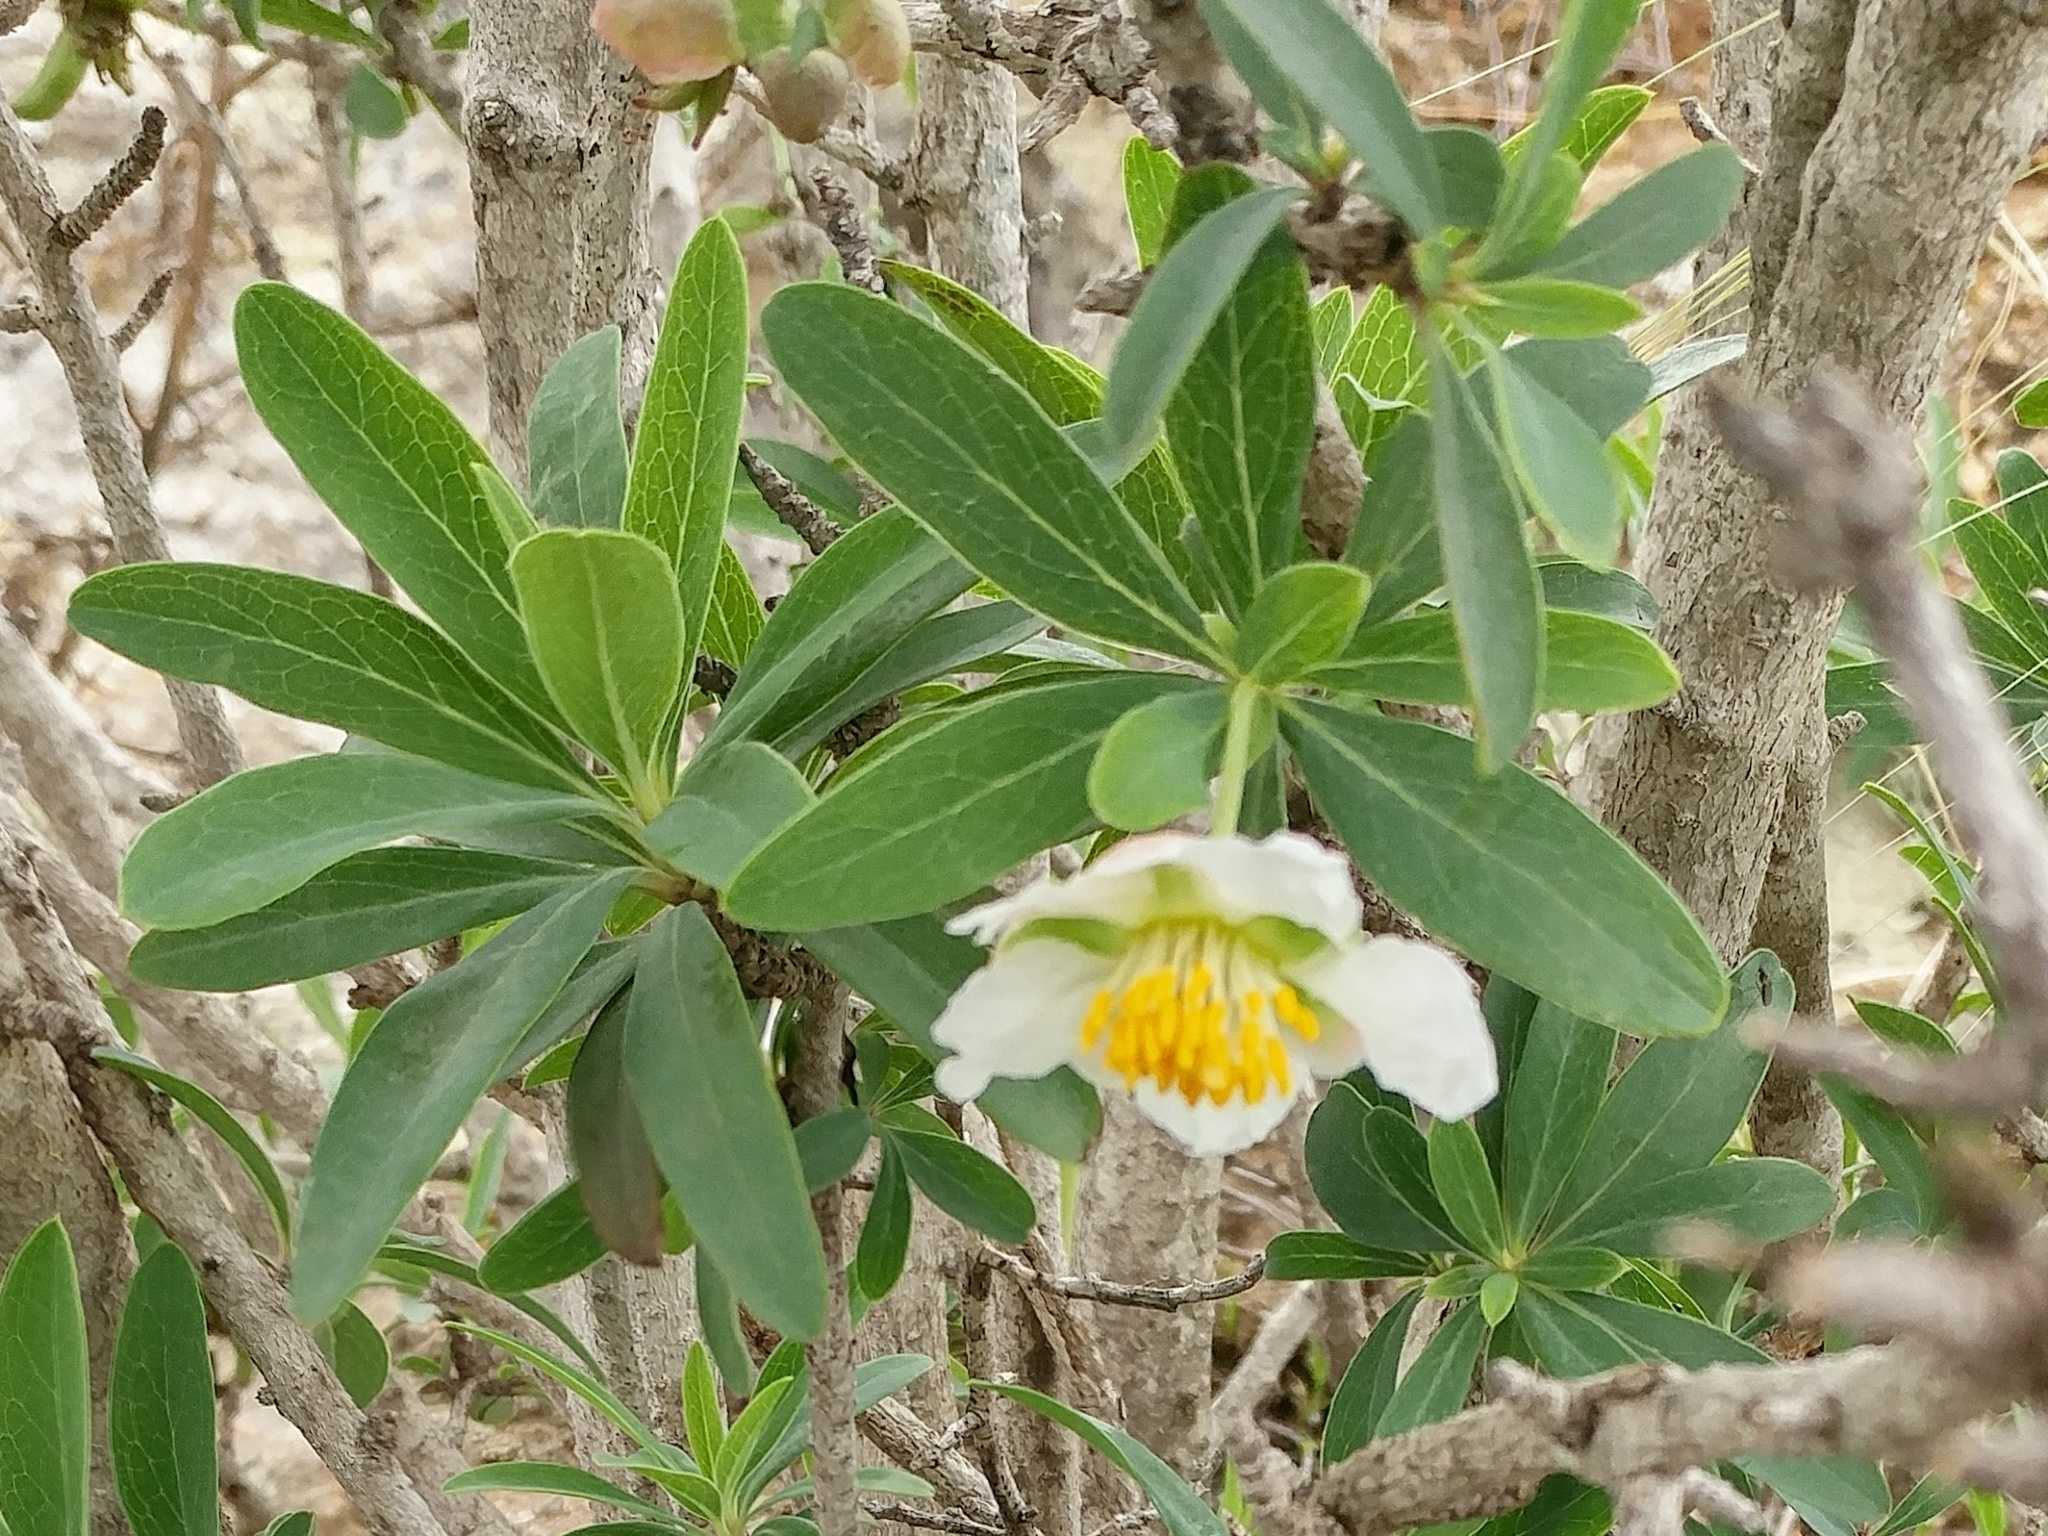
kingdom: Plantae
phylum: Tracheophyta
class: Magnoliopsida
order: Crossosomatales
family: Crossosomataceae
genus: Crossosoma
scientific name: Crossosoma californicum
